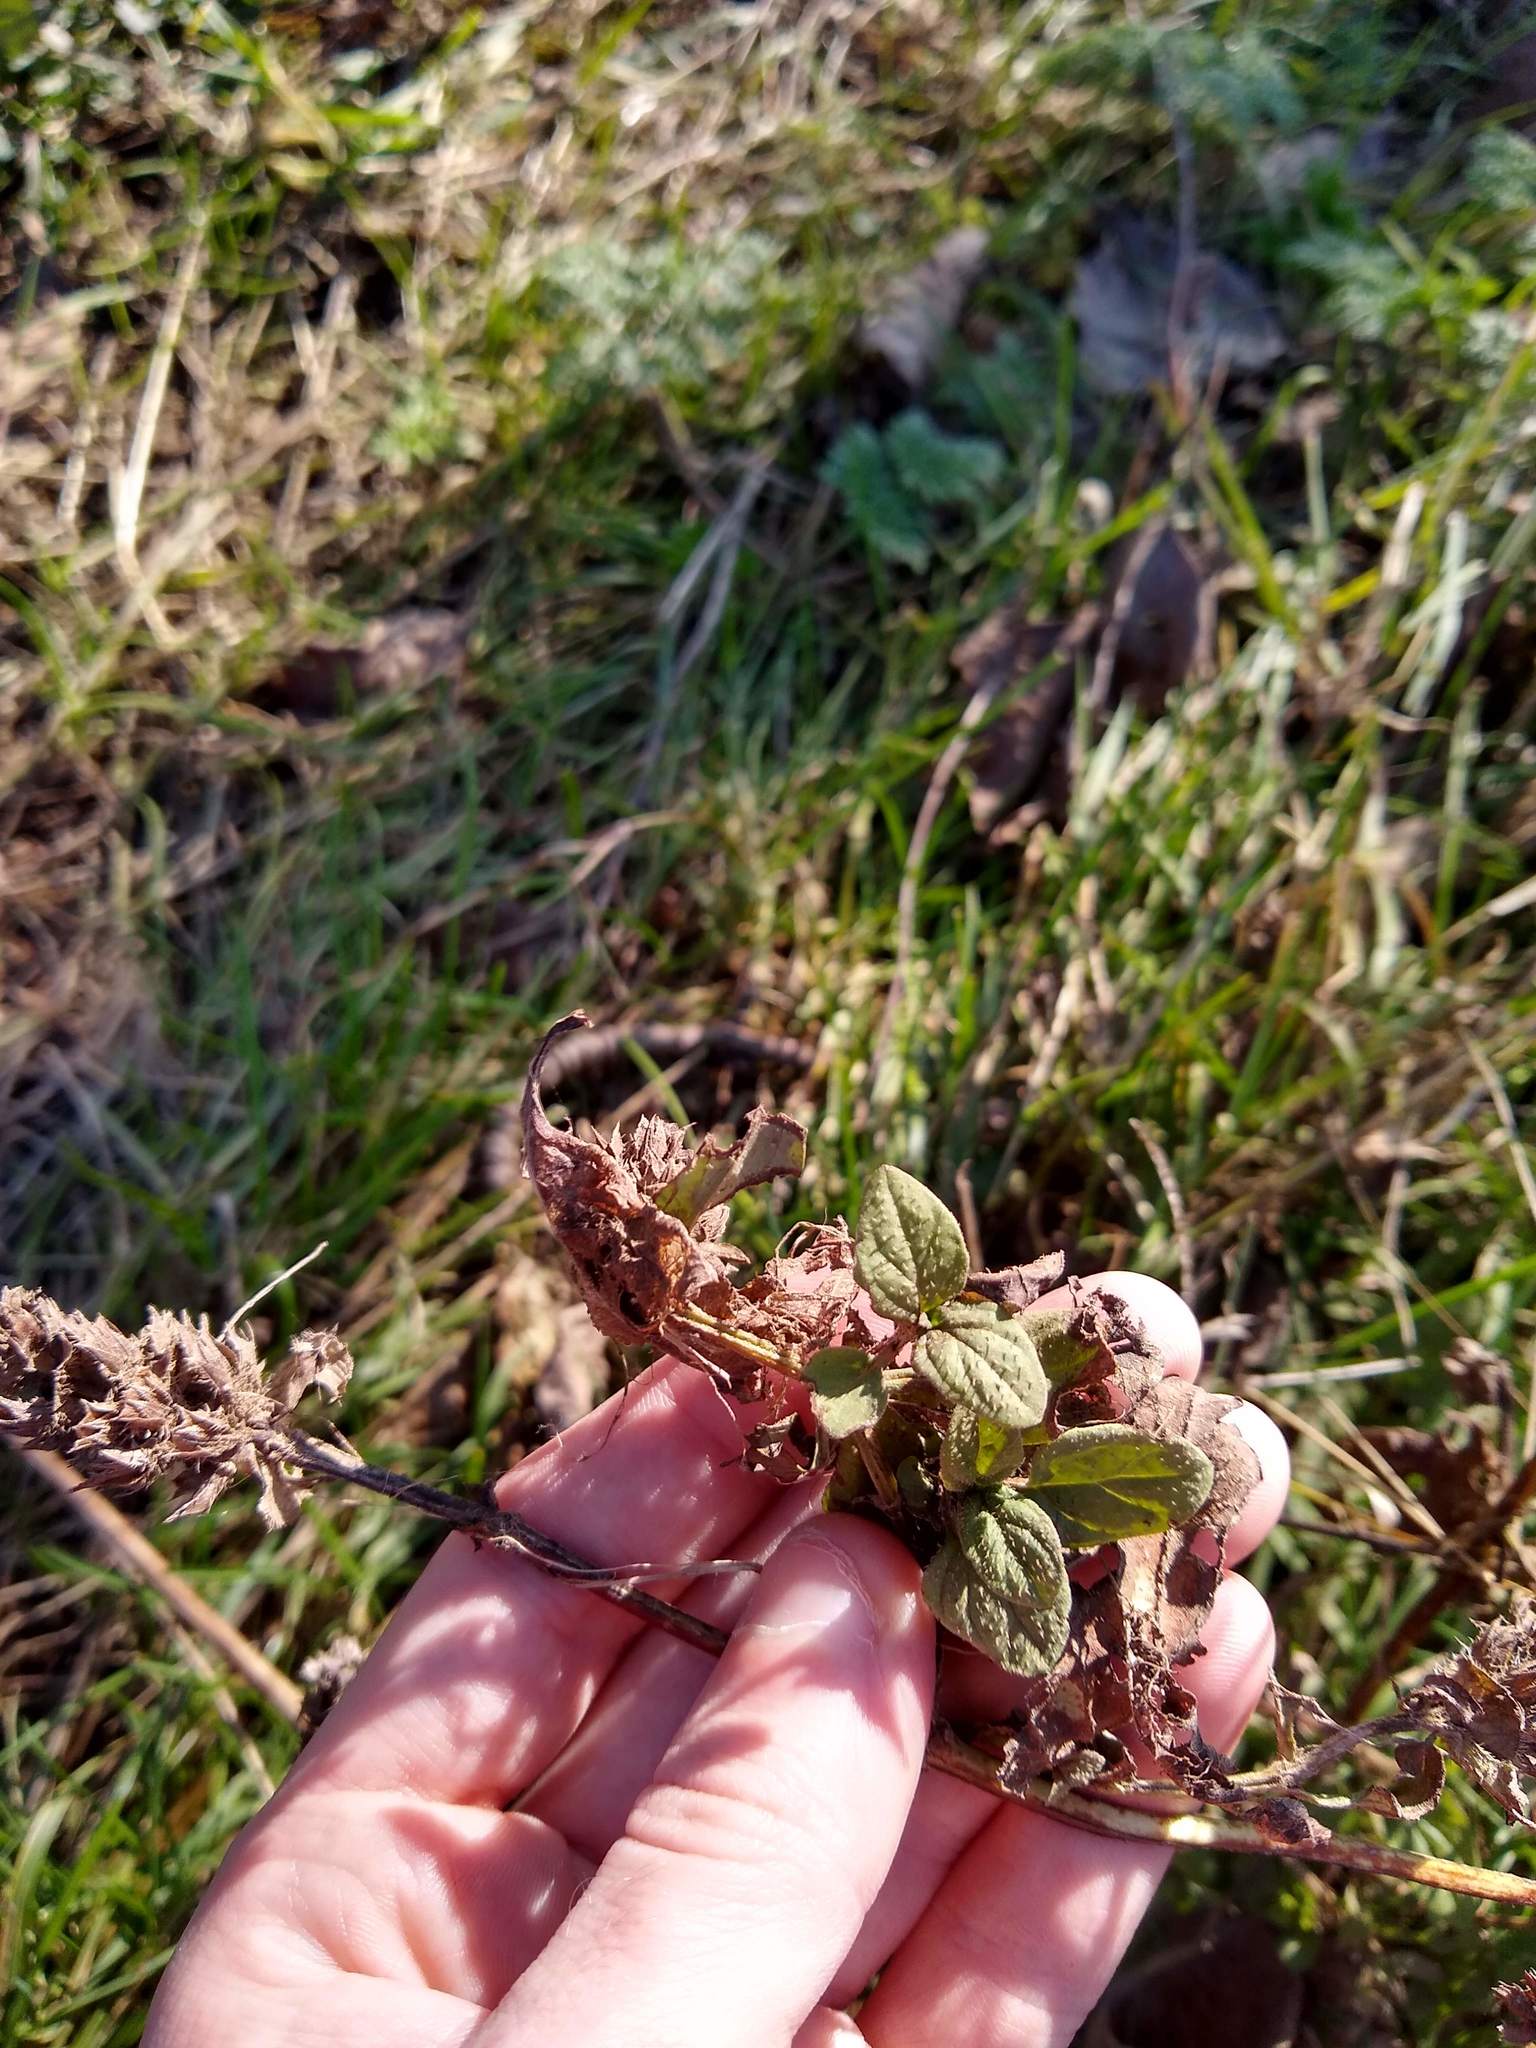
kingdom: Plantae
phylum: Tracheophyta
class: Magnoliopsida
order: Lamiales
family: Lamiaceae
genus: Prunella
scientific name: Prunella vulgaris
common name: Heal-all
